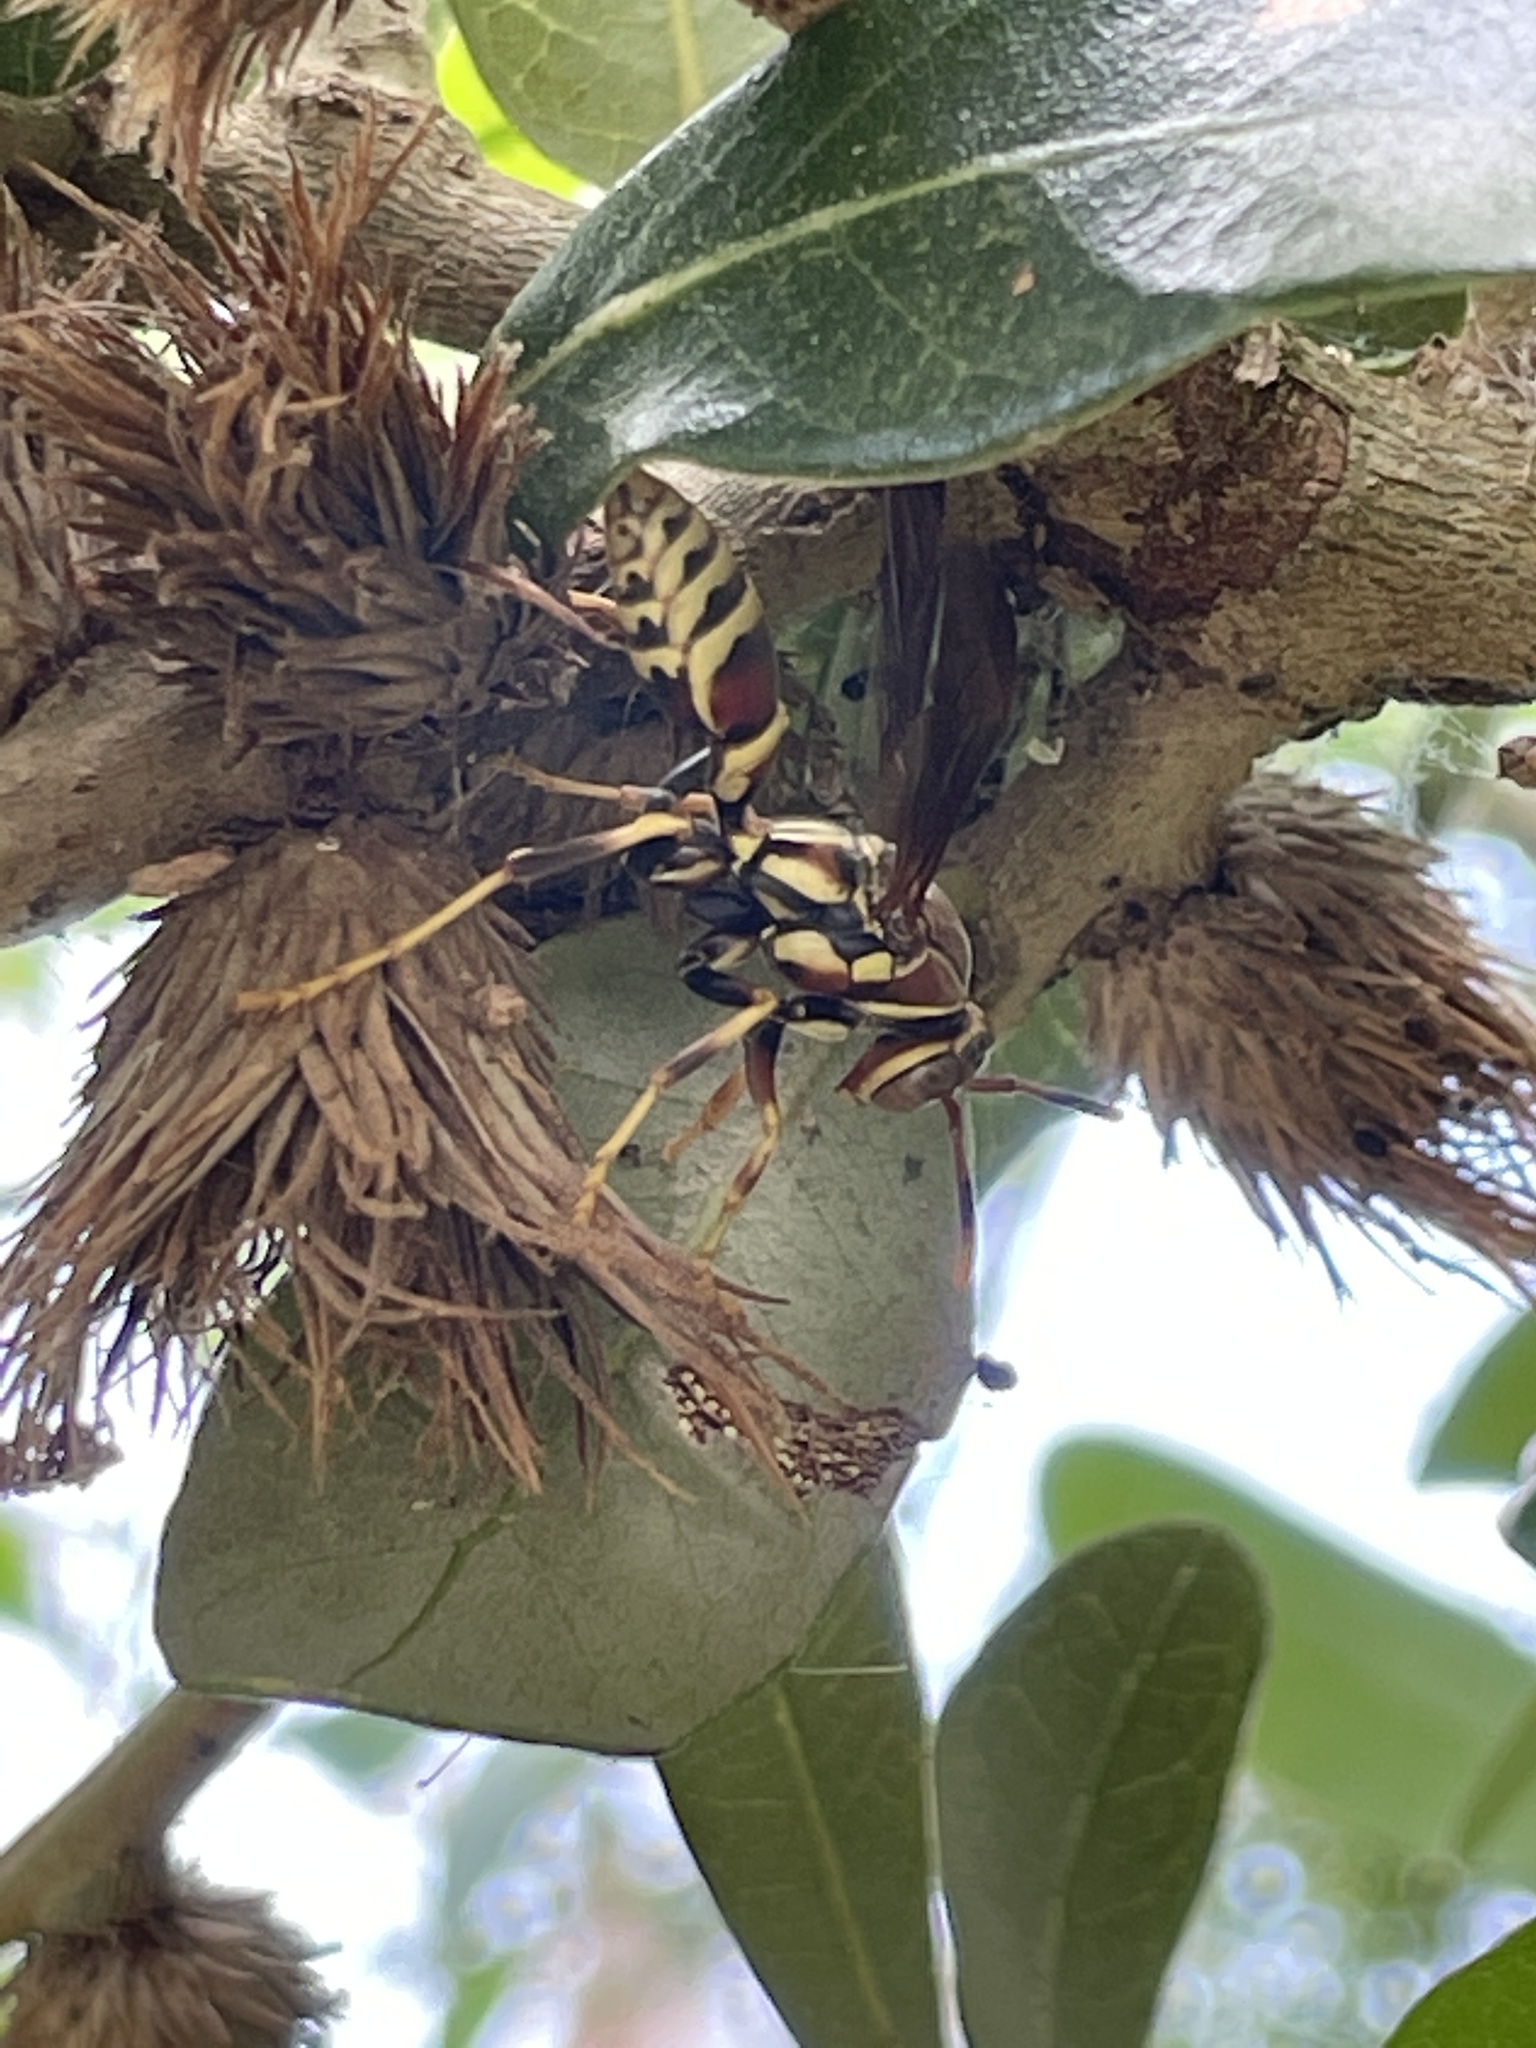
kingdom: Animalia
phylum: Arthropoda
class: Insecta
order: Hymenoptera
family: Eumenidae
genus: Polistes
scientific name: Polistes exclamans
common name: Paper wasp
